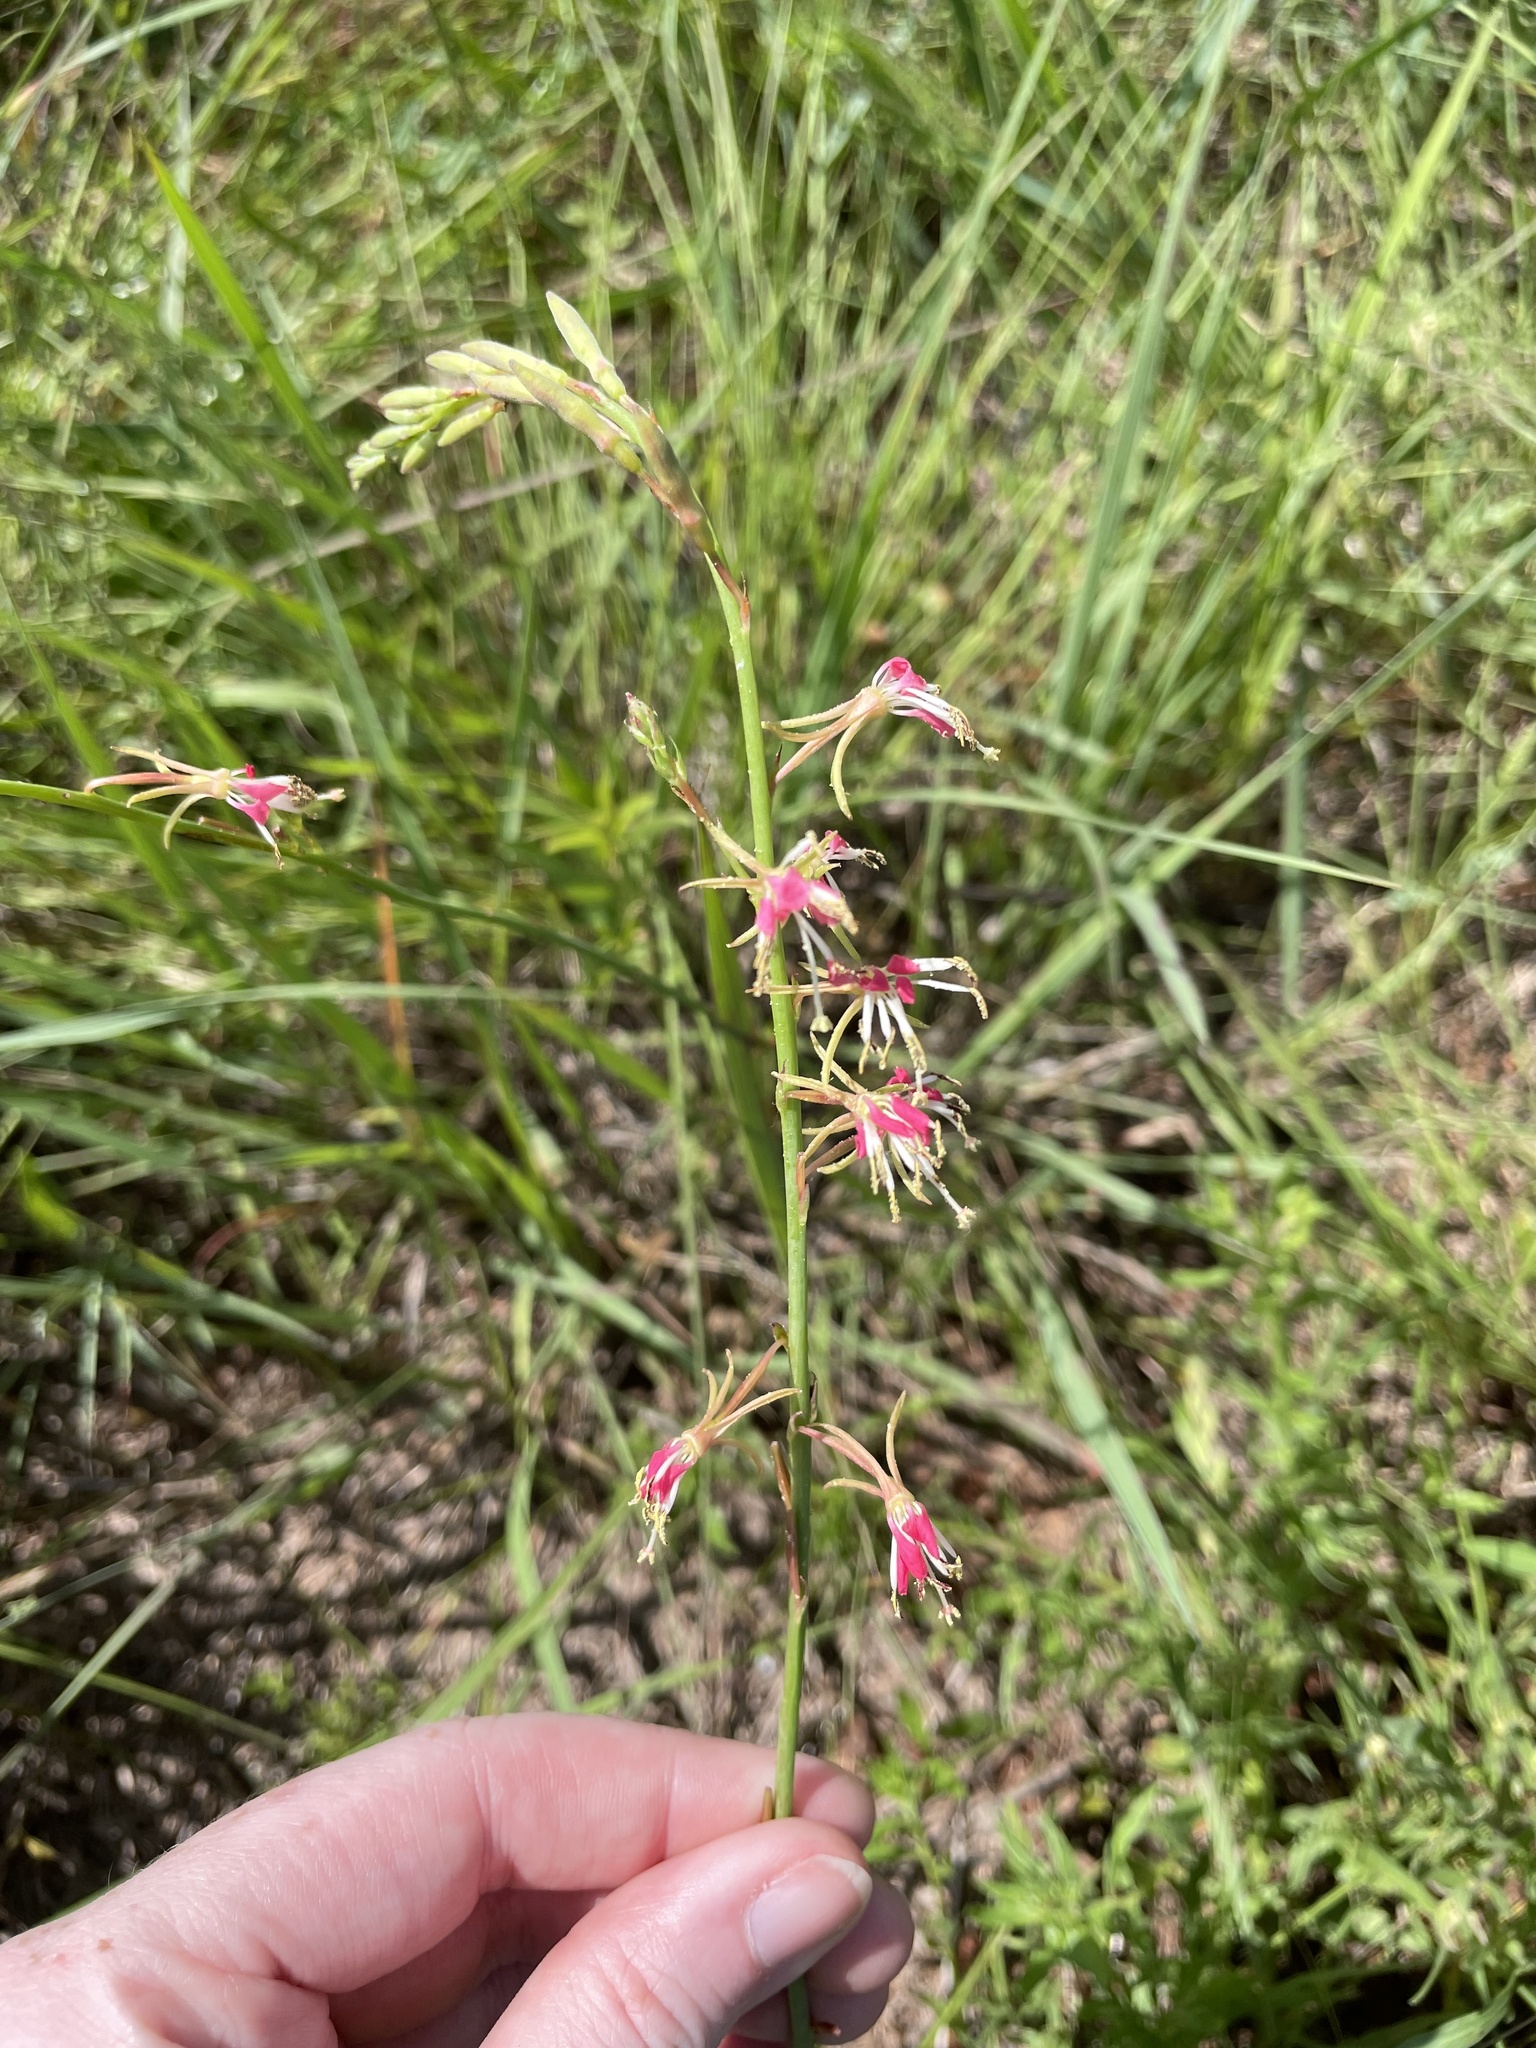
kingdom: Plantae
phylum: Tracheophyta
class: Magnoliopsida
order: Myrtales
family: Onagraceae
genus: Oenothera
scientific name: Oenothera sinuosa
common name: Wavyleaf beeblossom
